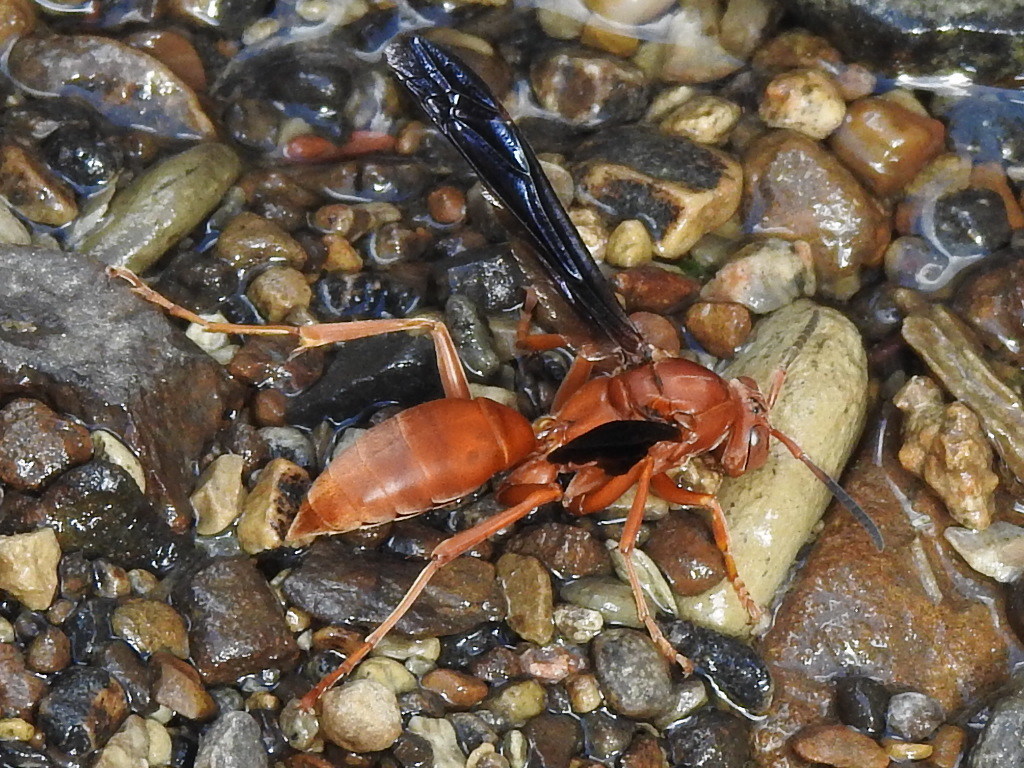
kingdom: Animalia
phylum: Arthropoda
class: Insecta
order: Hymenoptera
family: Eumenidae
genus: Polistes
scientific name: Polistes carolina
